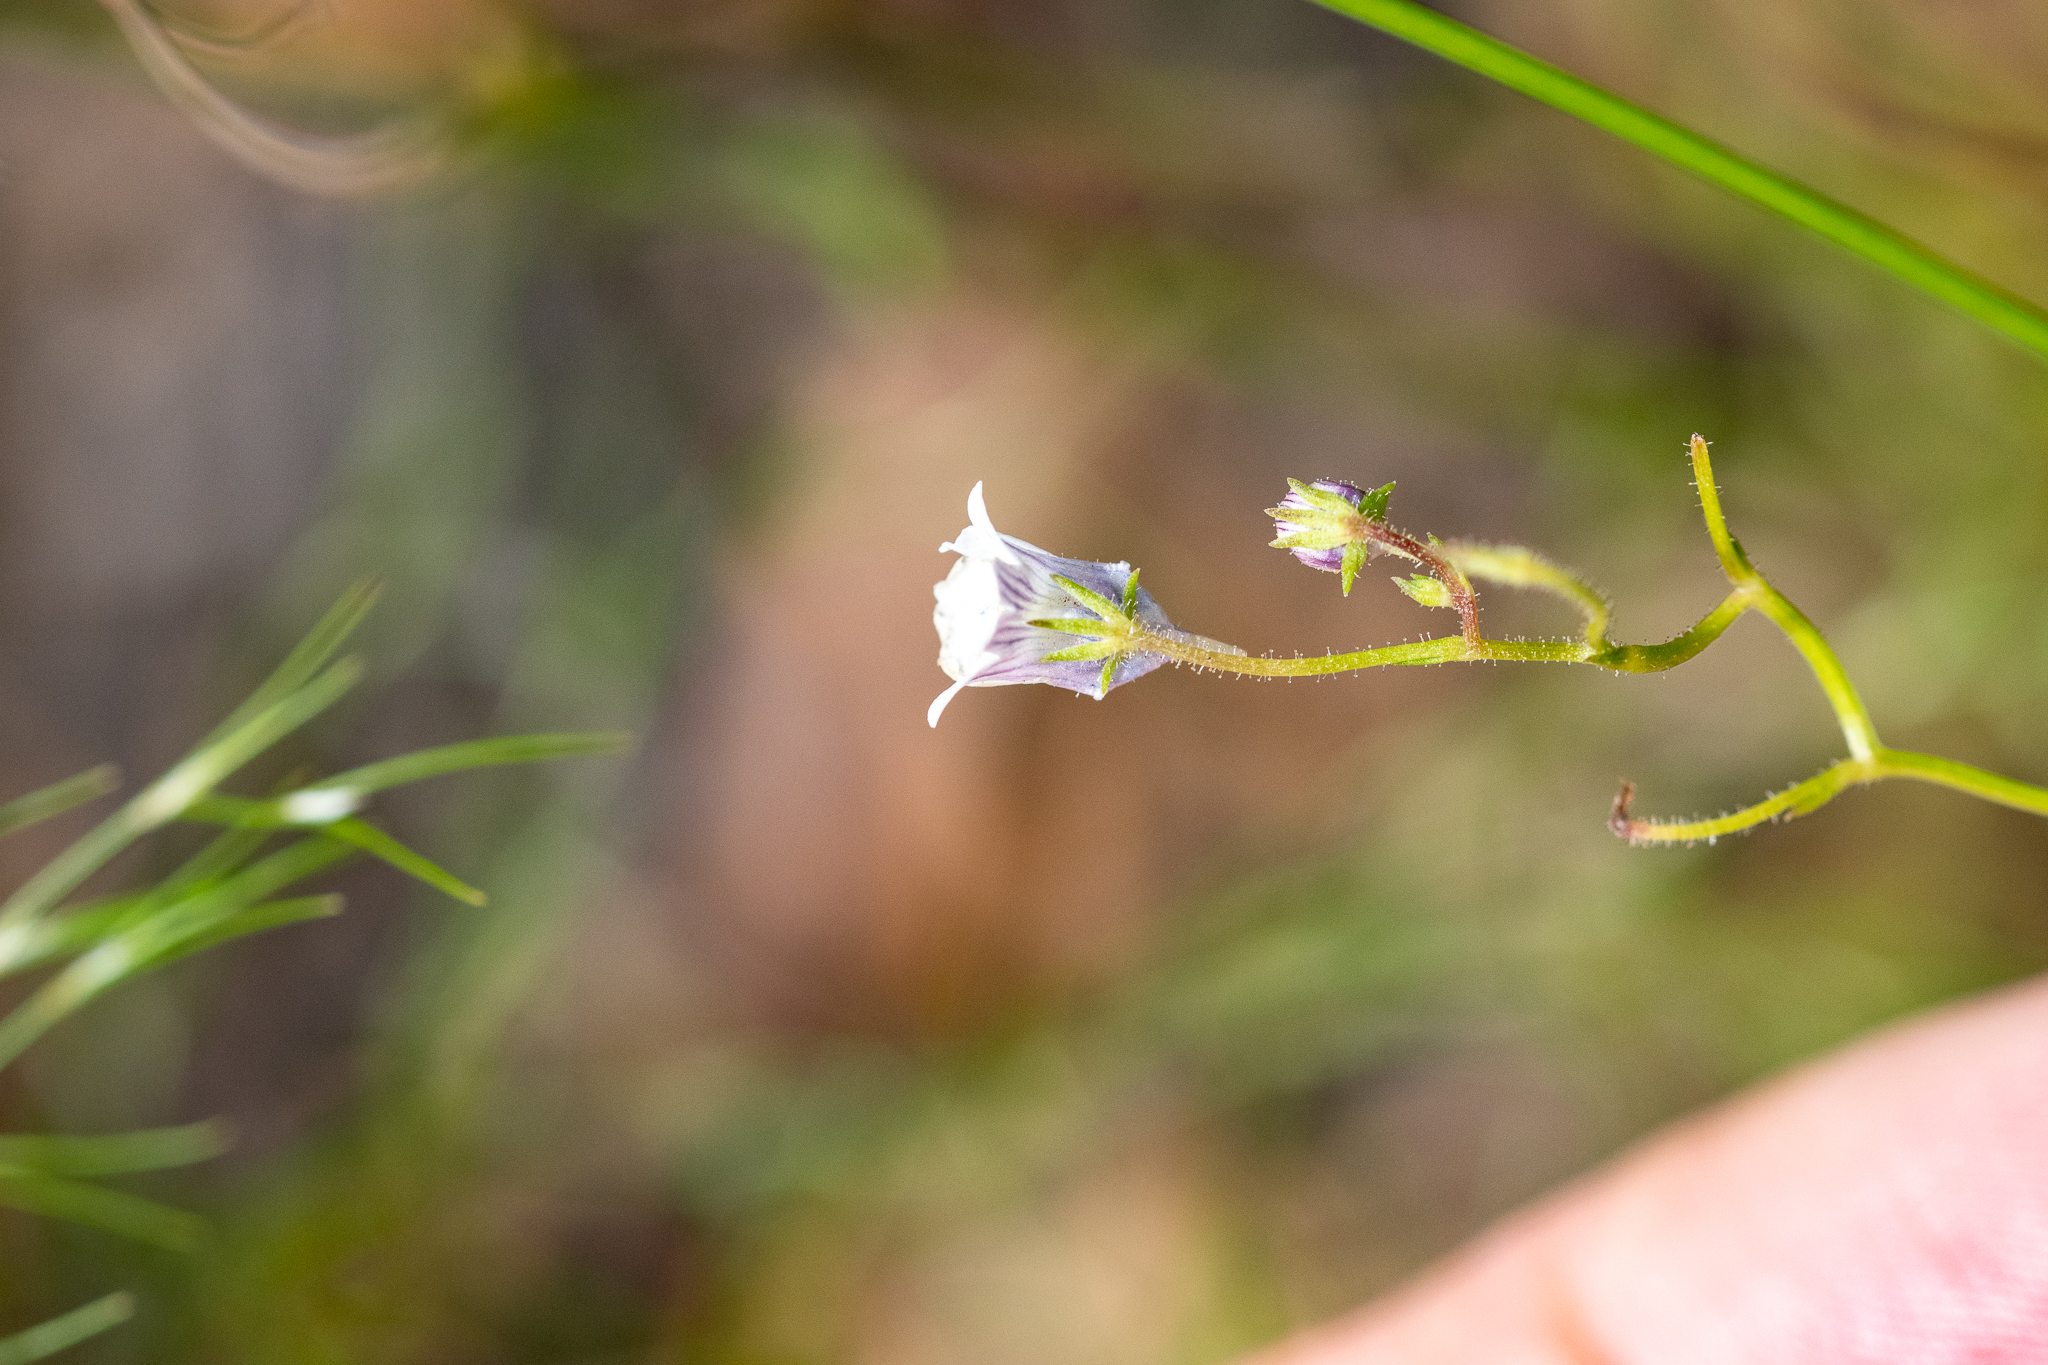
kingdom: Plantae
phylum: Tracheophyta
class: Magnoliopsida
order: Lamiales
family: Scrophulariaceae
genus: Nemesia
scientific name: Nemesia diffusa
